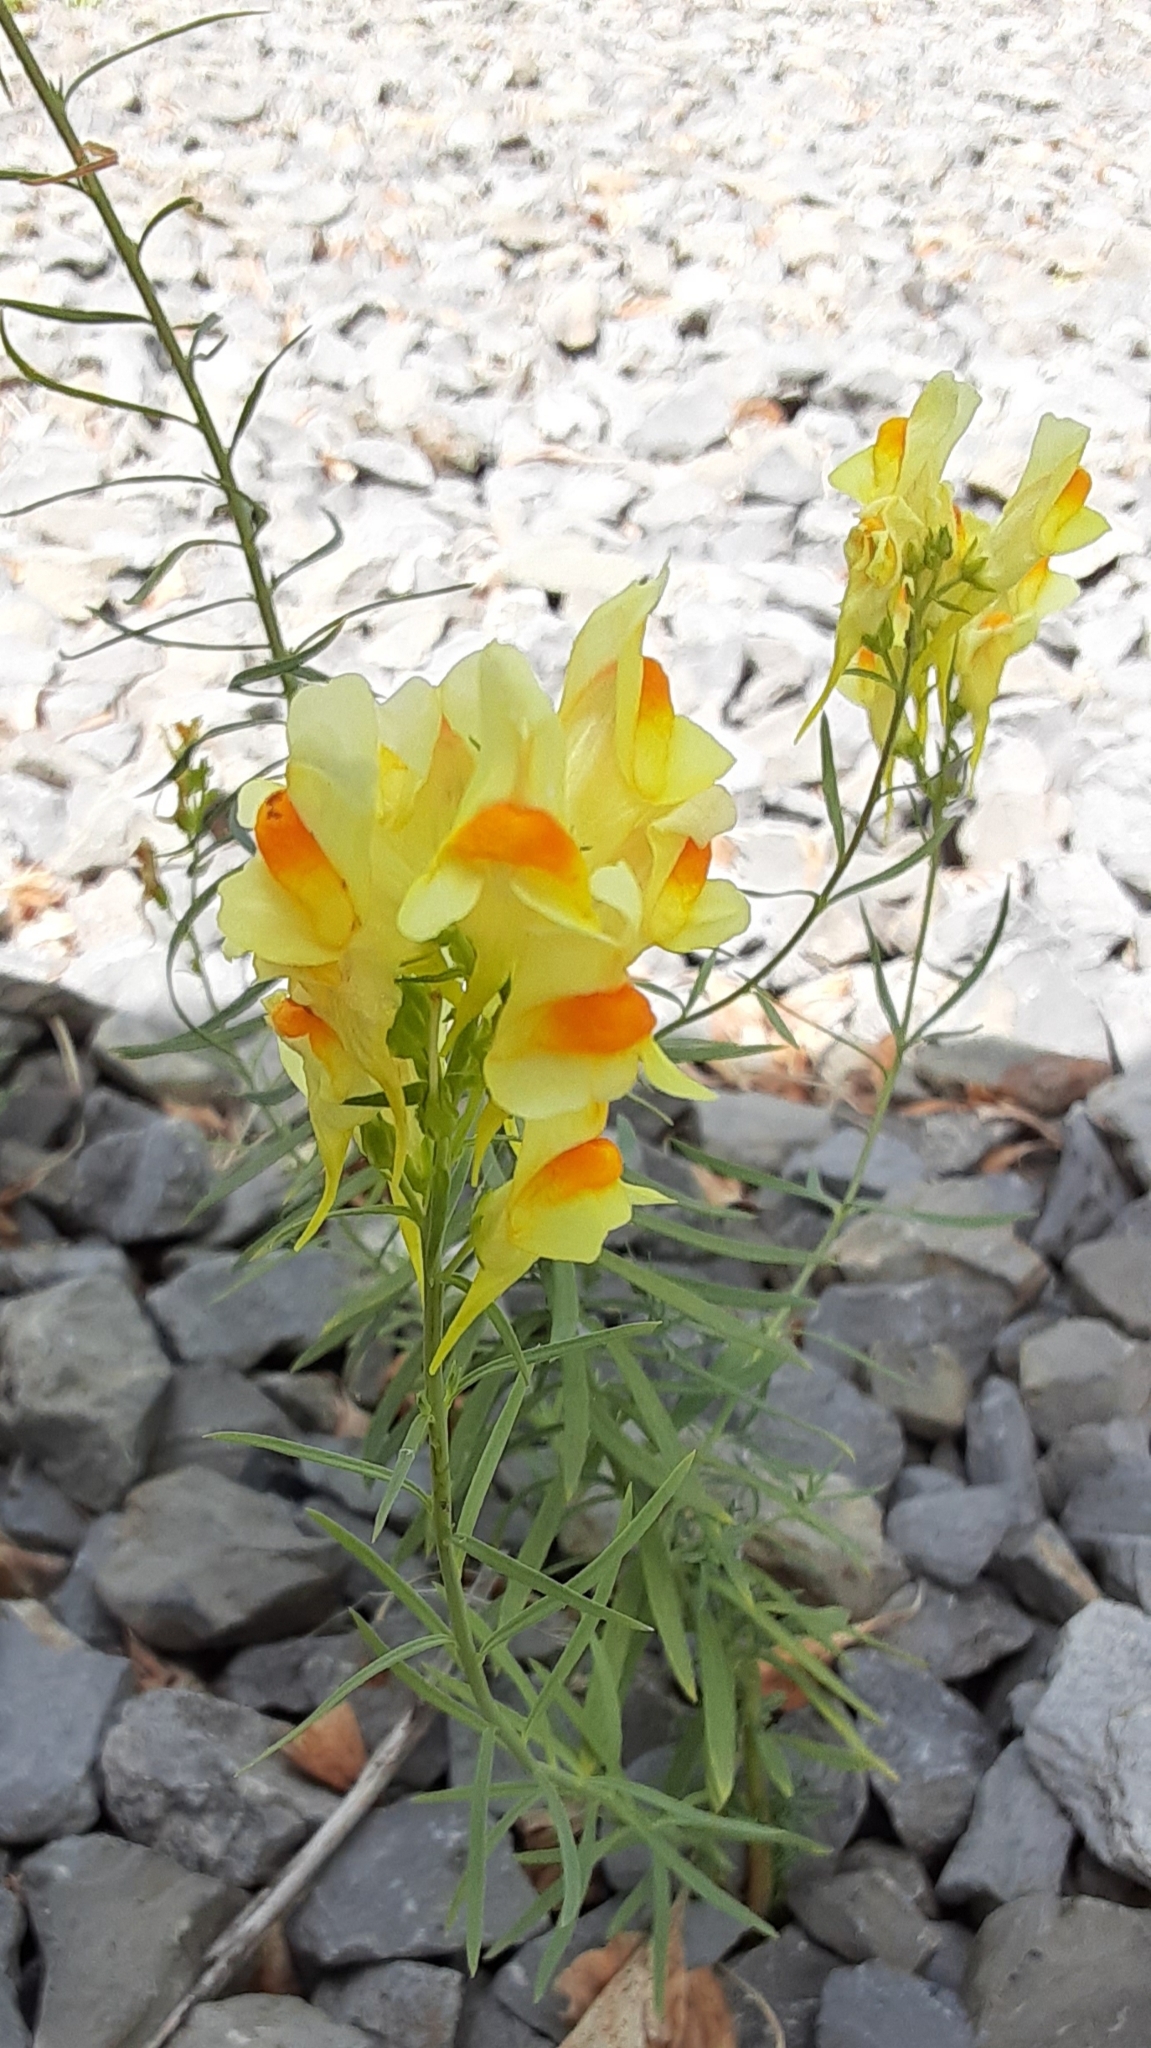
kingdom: Plantae
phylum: Tracheophyta
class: Magnoliopsida
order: Lamiales
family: Plantaginaceae
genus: Linaria
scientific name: Linaria vulgaris
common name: Butter and eggs
